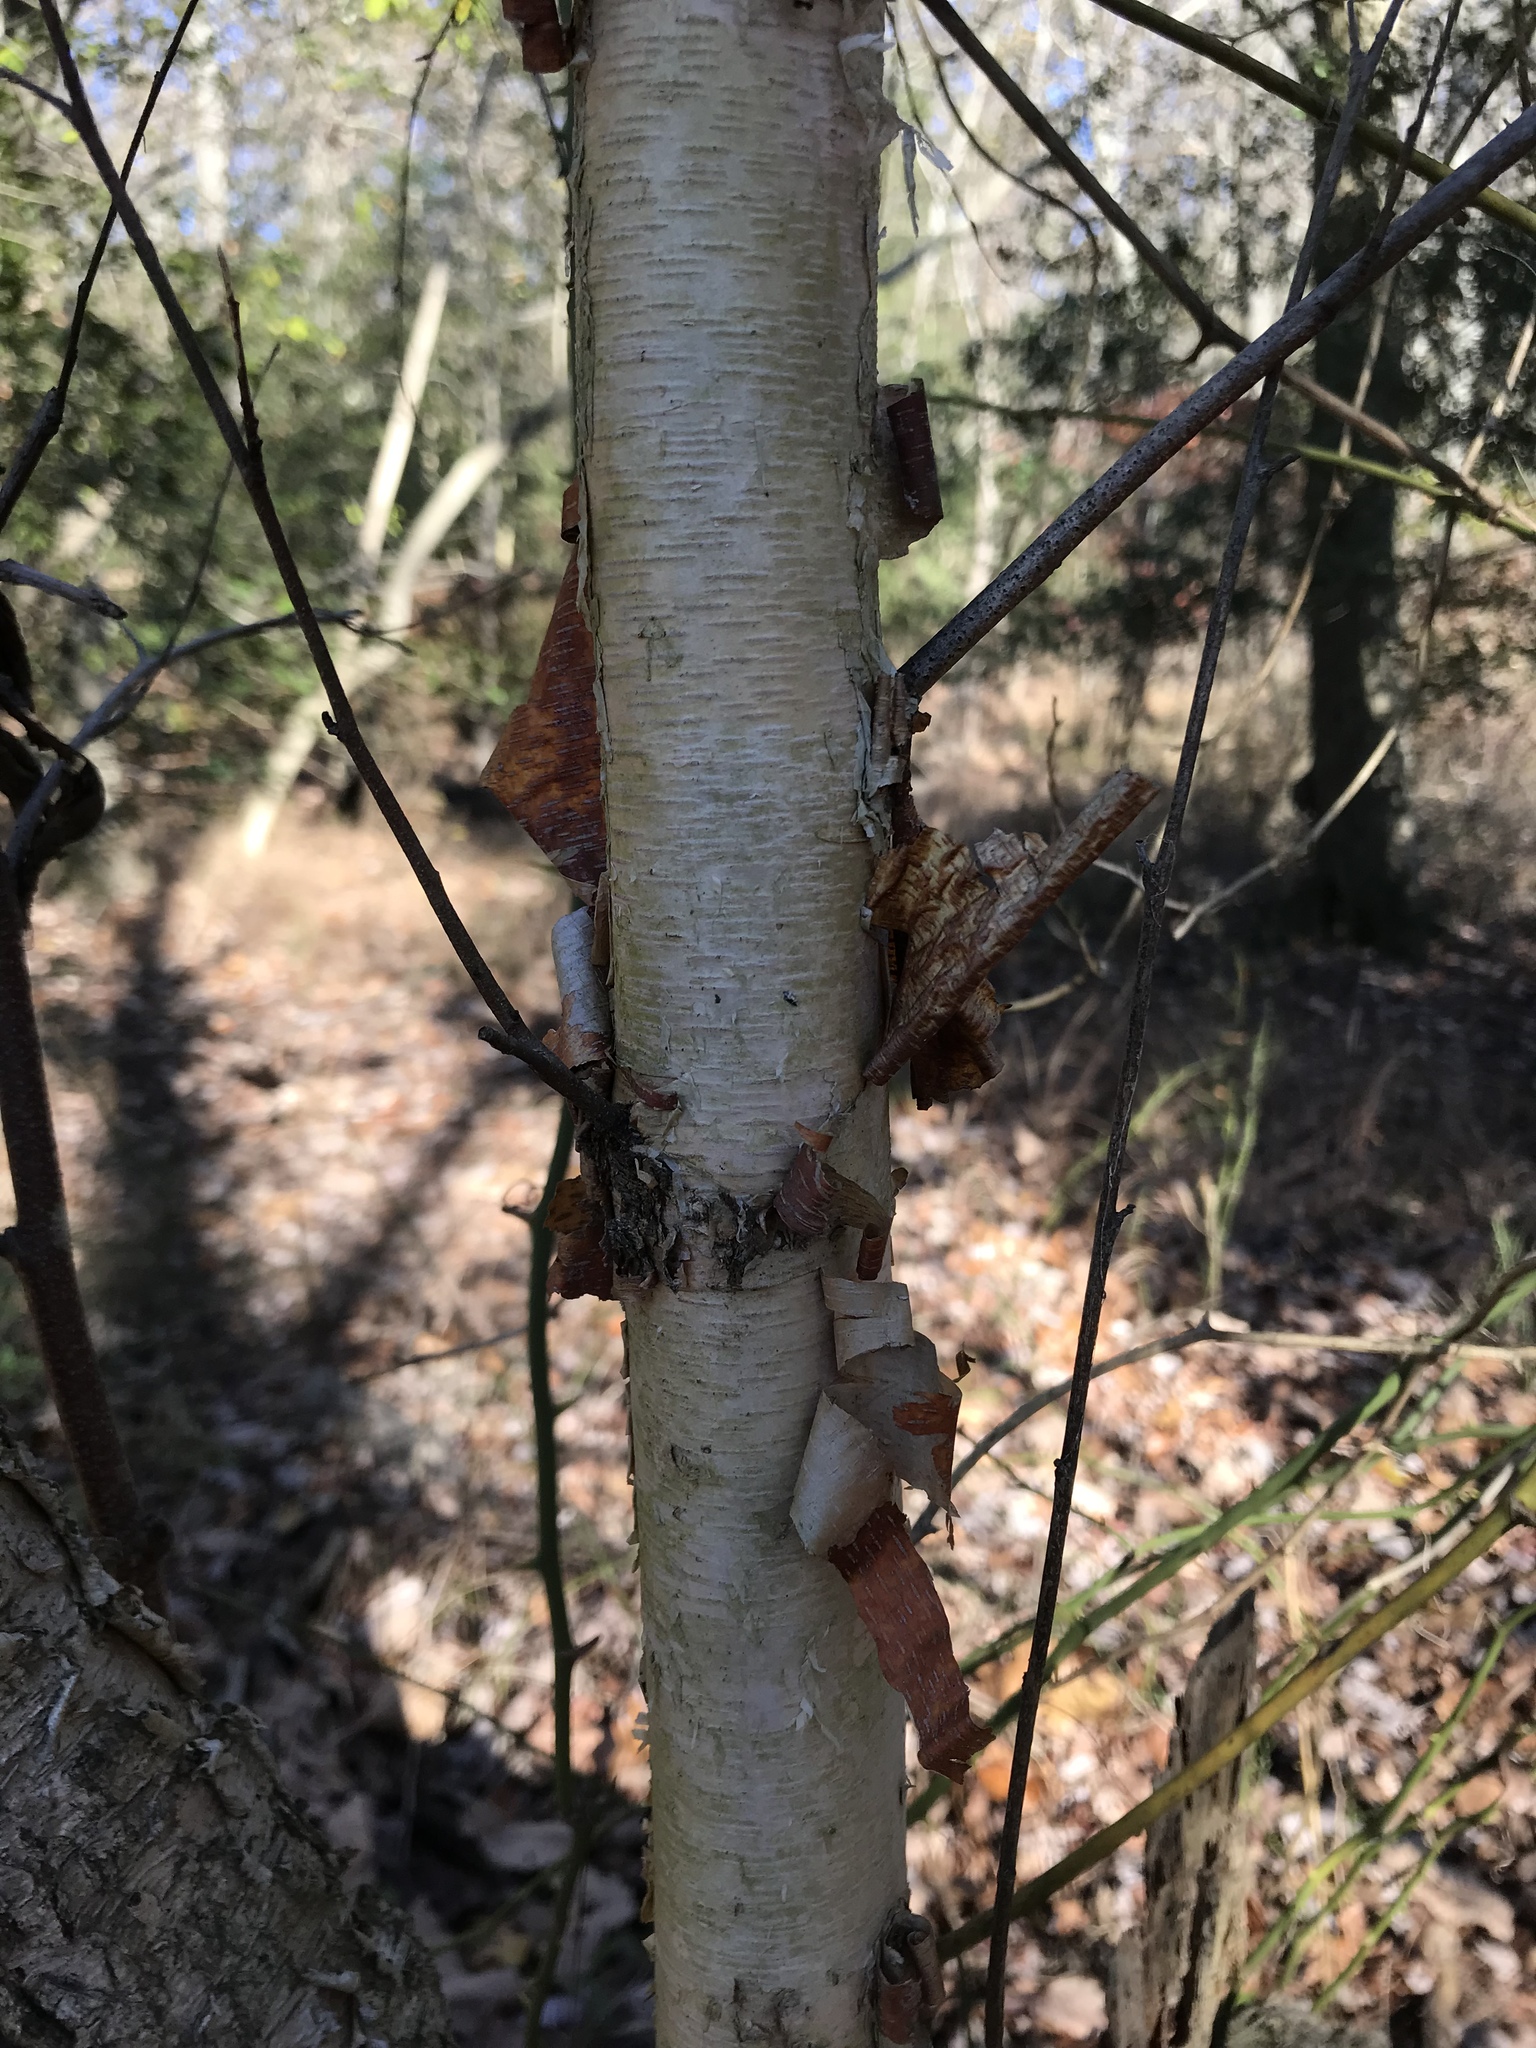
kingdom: Plantae
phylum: Tracheophyta
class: Magnoliopsida
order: Fagales
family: Betulaceae
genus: Betula
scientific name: Betula nigra
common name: Black birch
